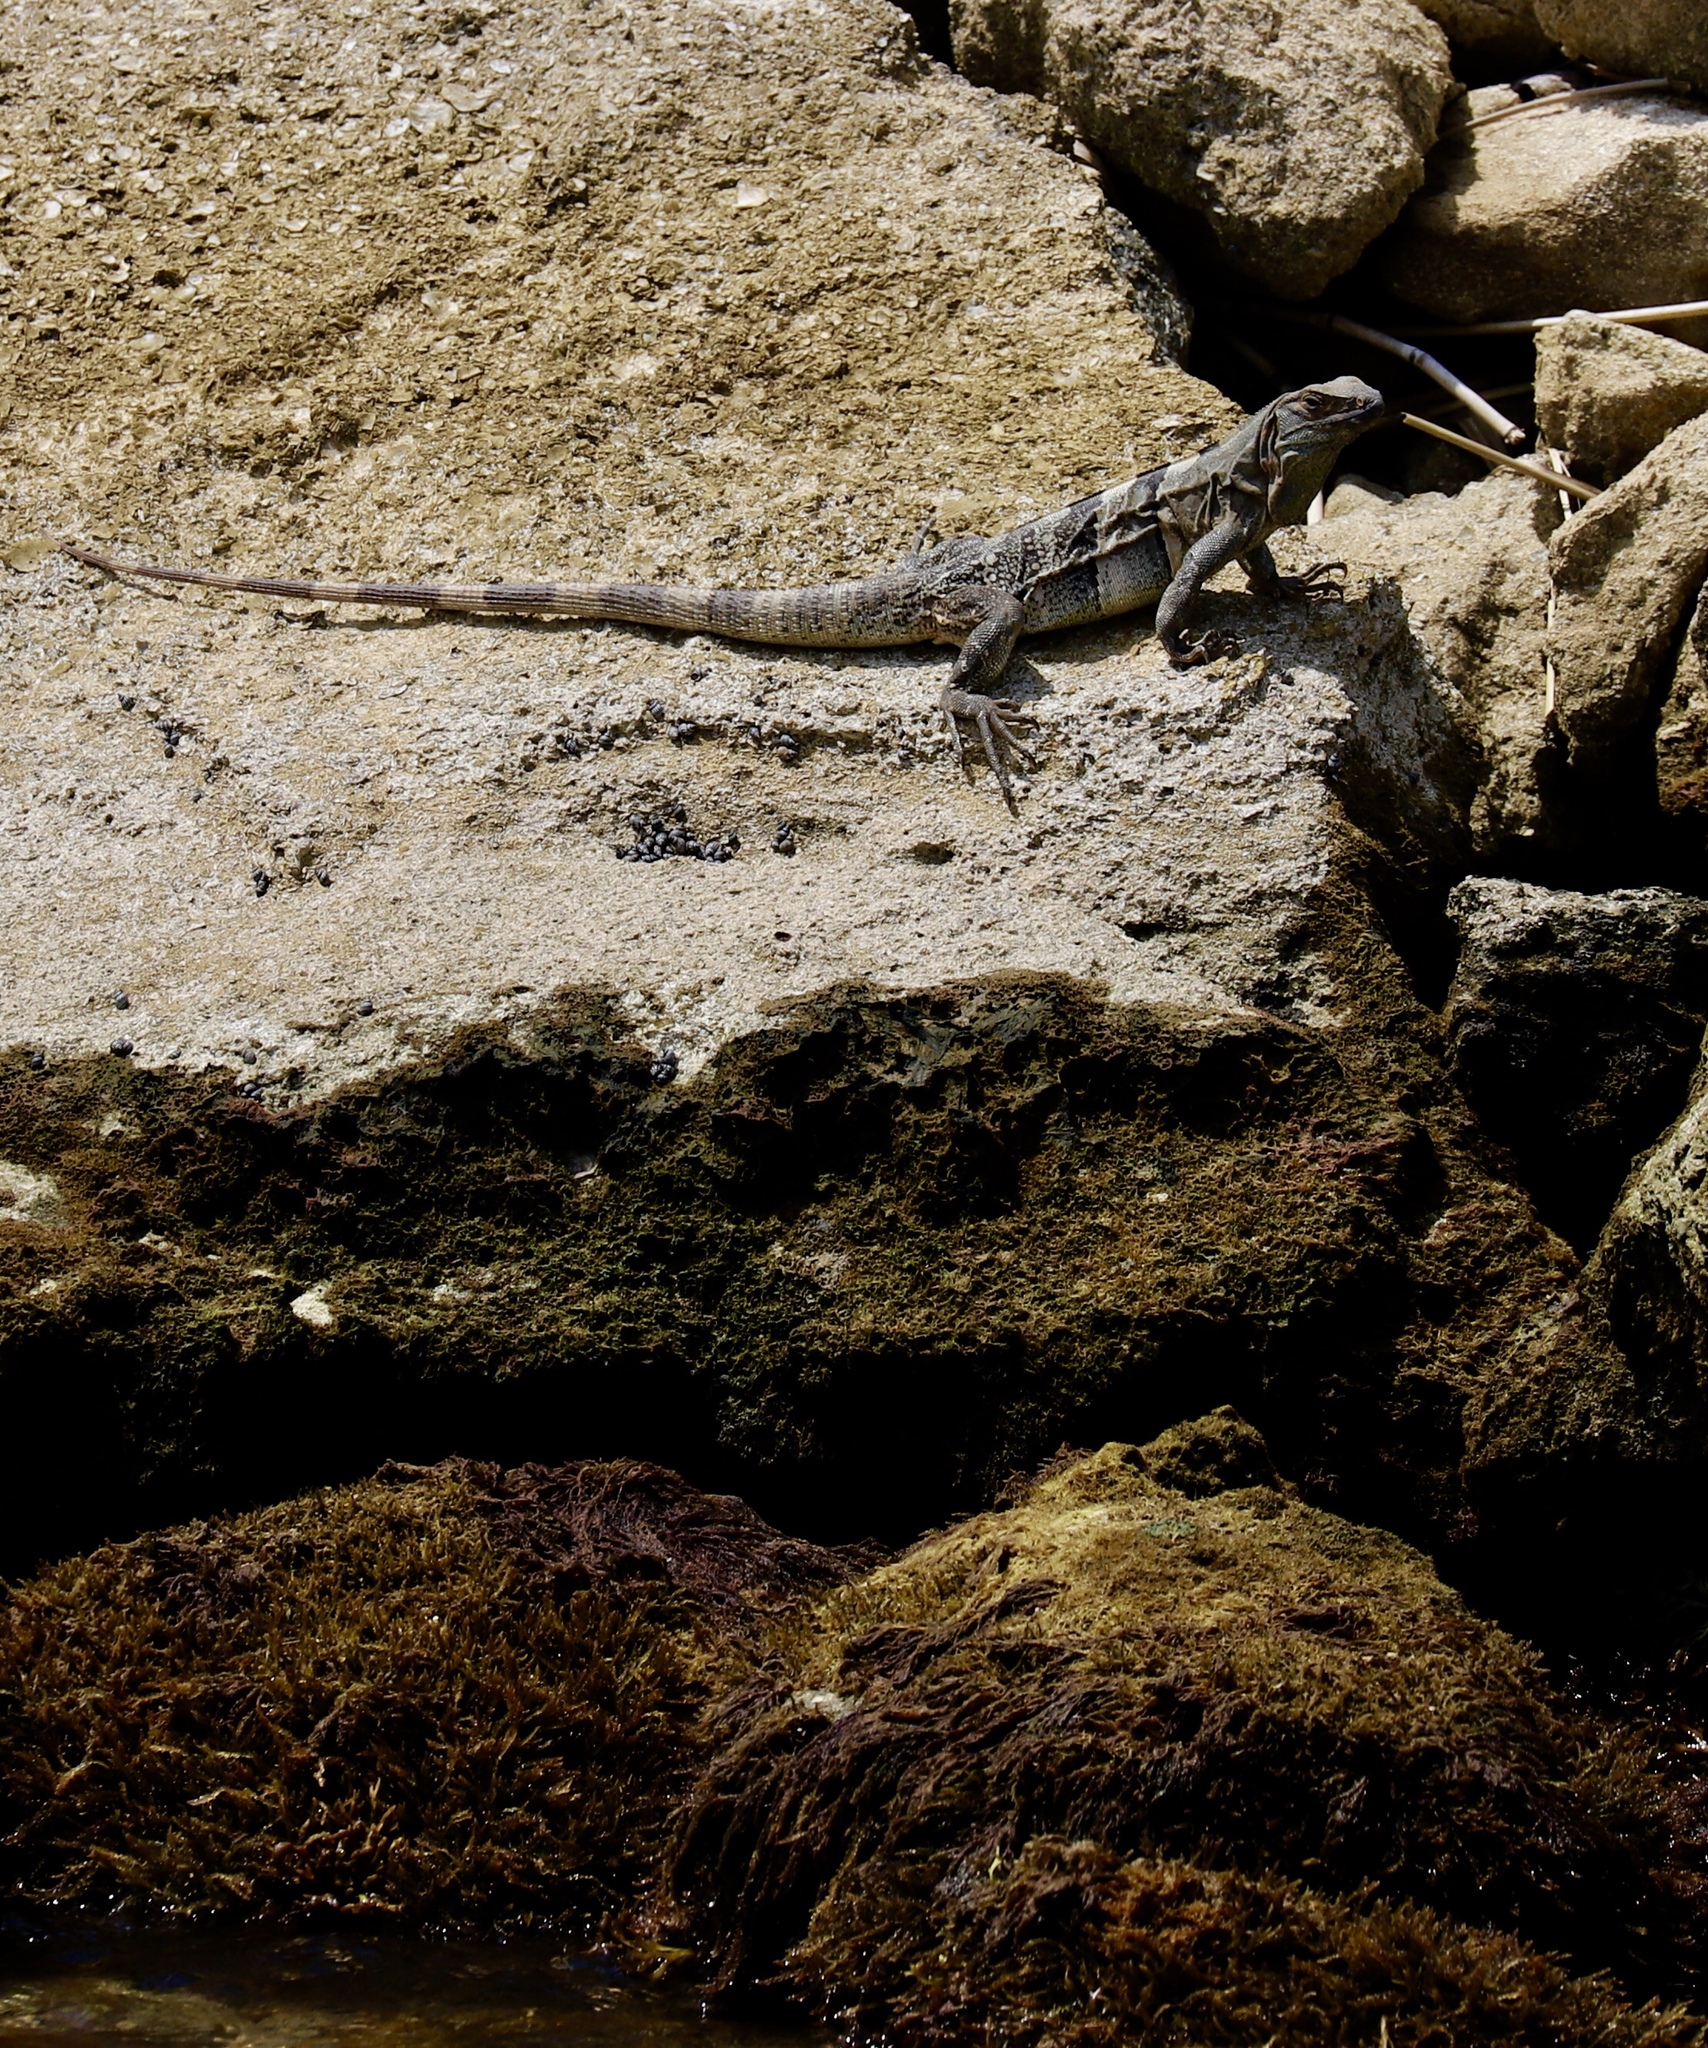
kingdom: Animalia
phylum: Chordata
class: Squamata
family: Iguanidae
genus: Ctenosaura
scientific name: Ctenosaura similis
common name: Black spiny-tailed iguana
